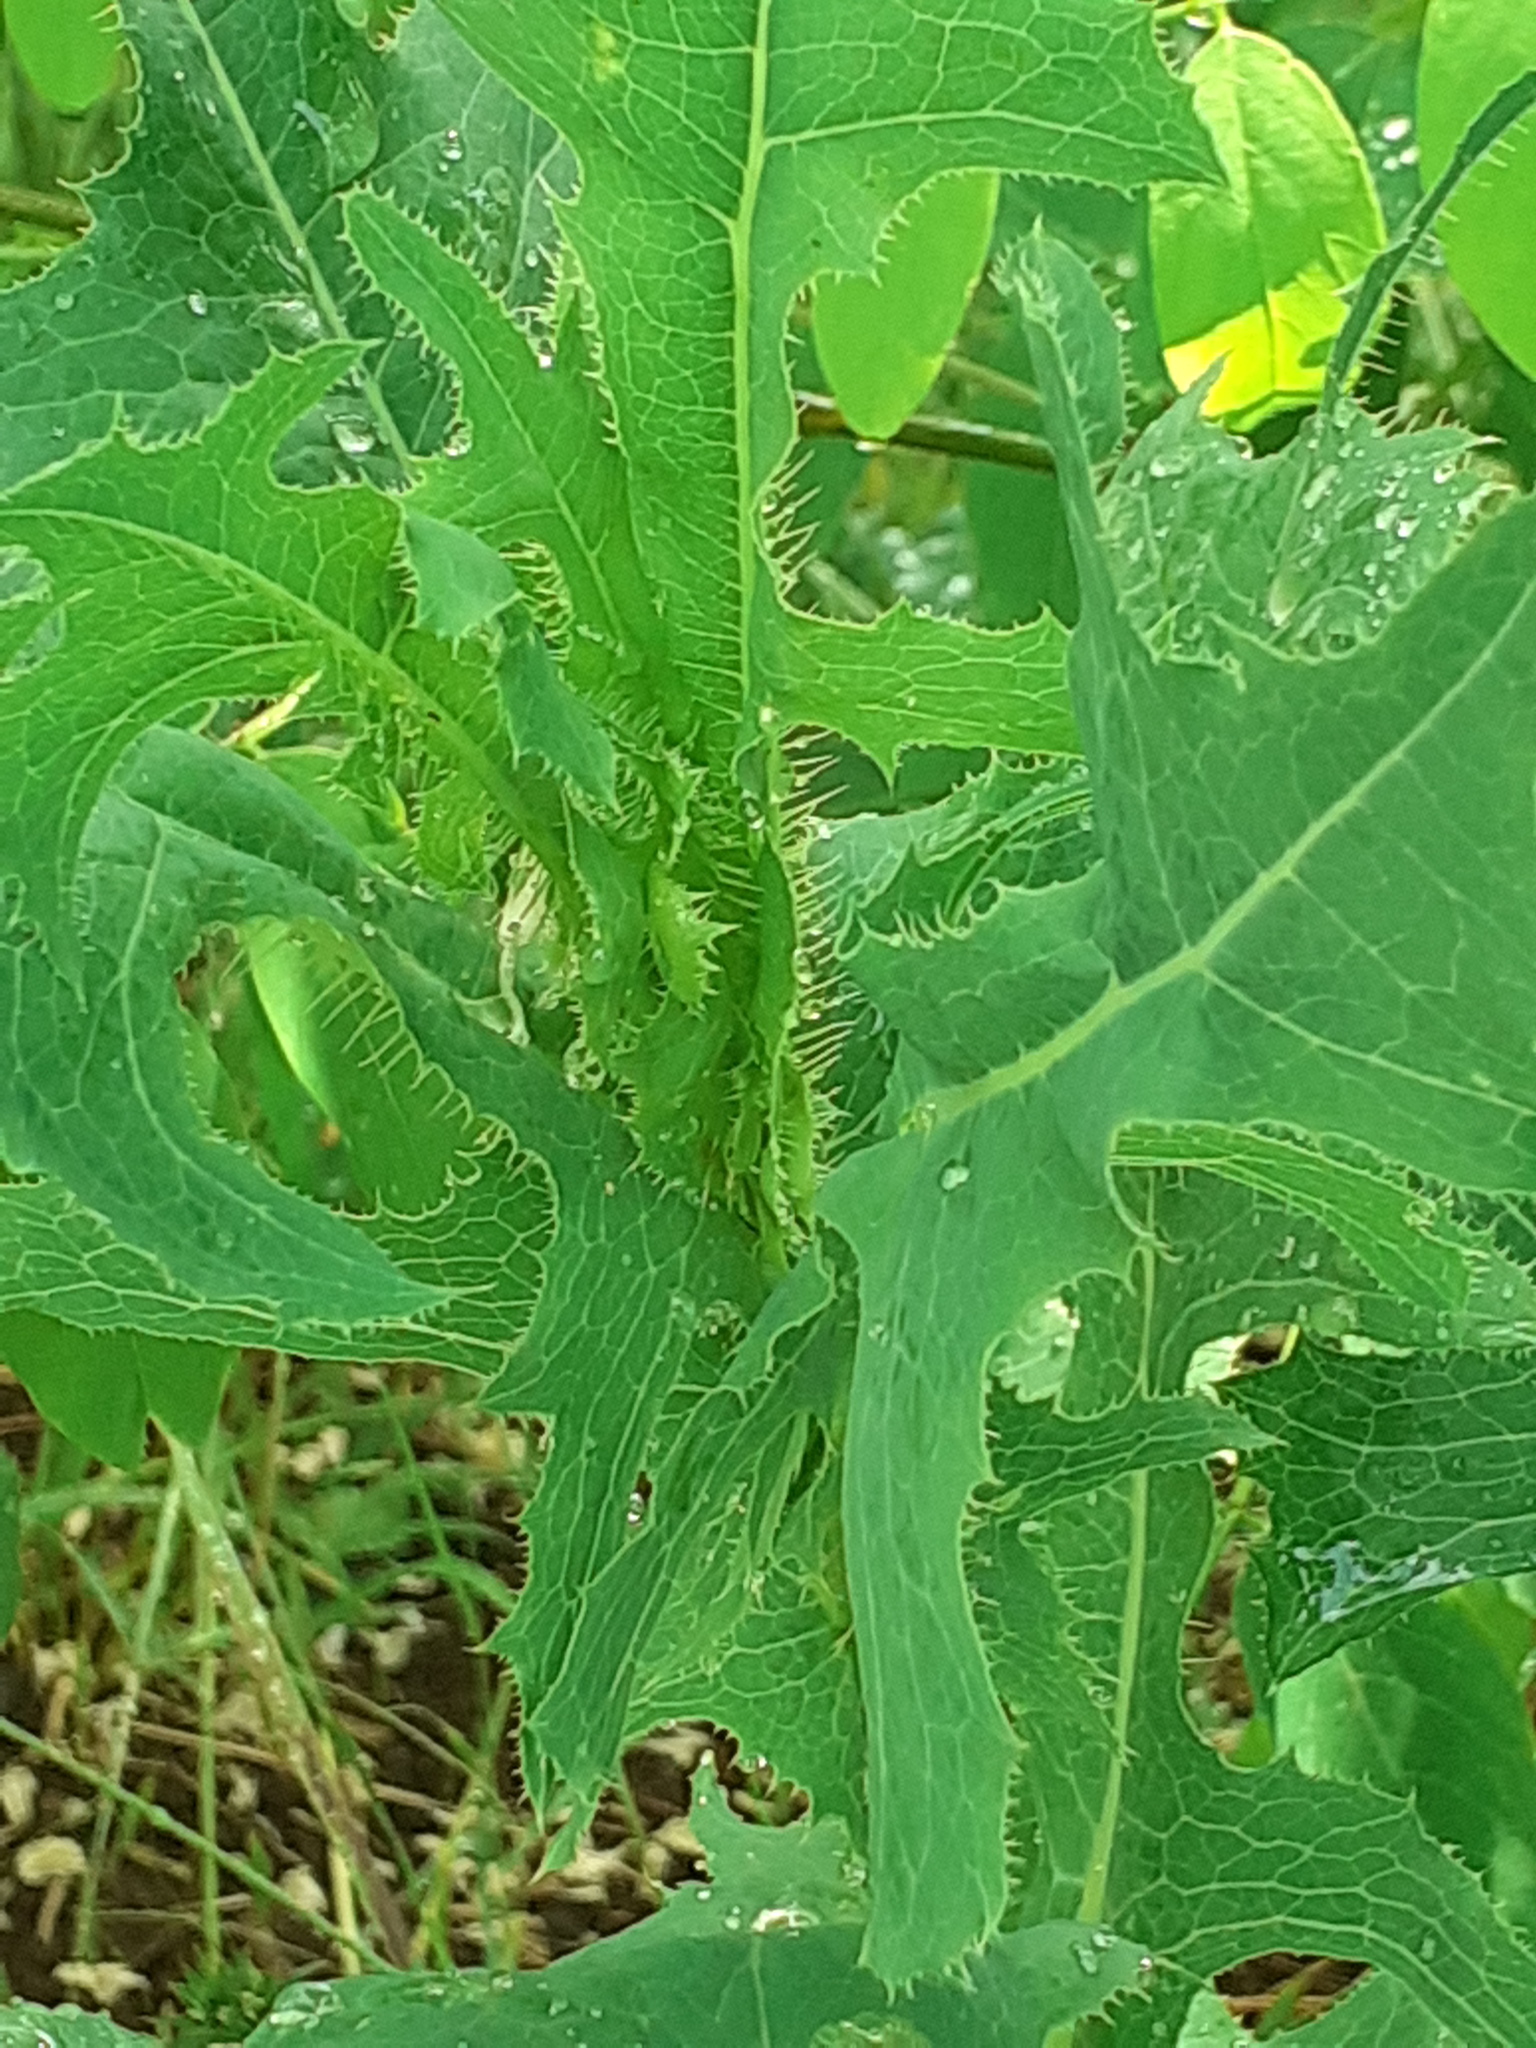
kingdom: Plantae
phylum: Tracheophyta
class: Magnoliopsida
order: Asterales
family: Asteraceae
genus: Lactuca
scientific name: Lactuca serriola
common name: Prickly lettuce
